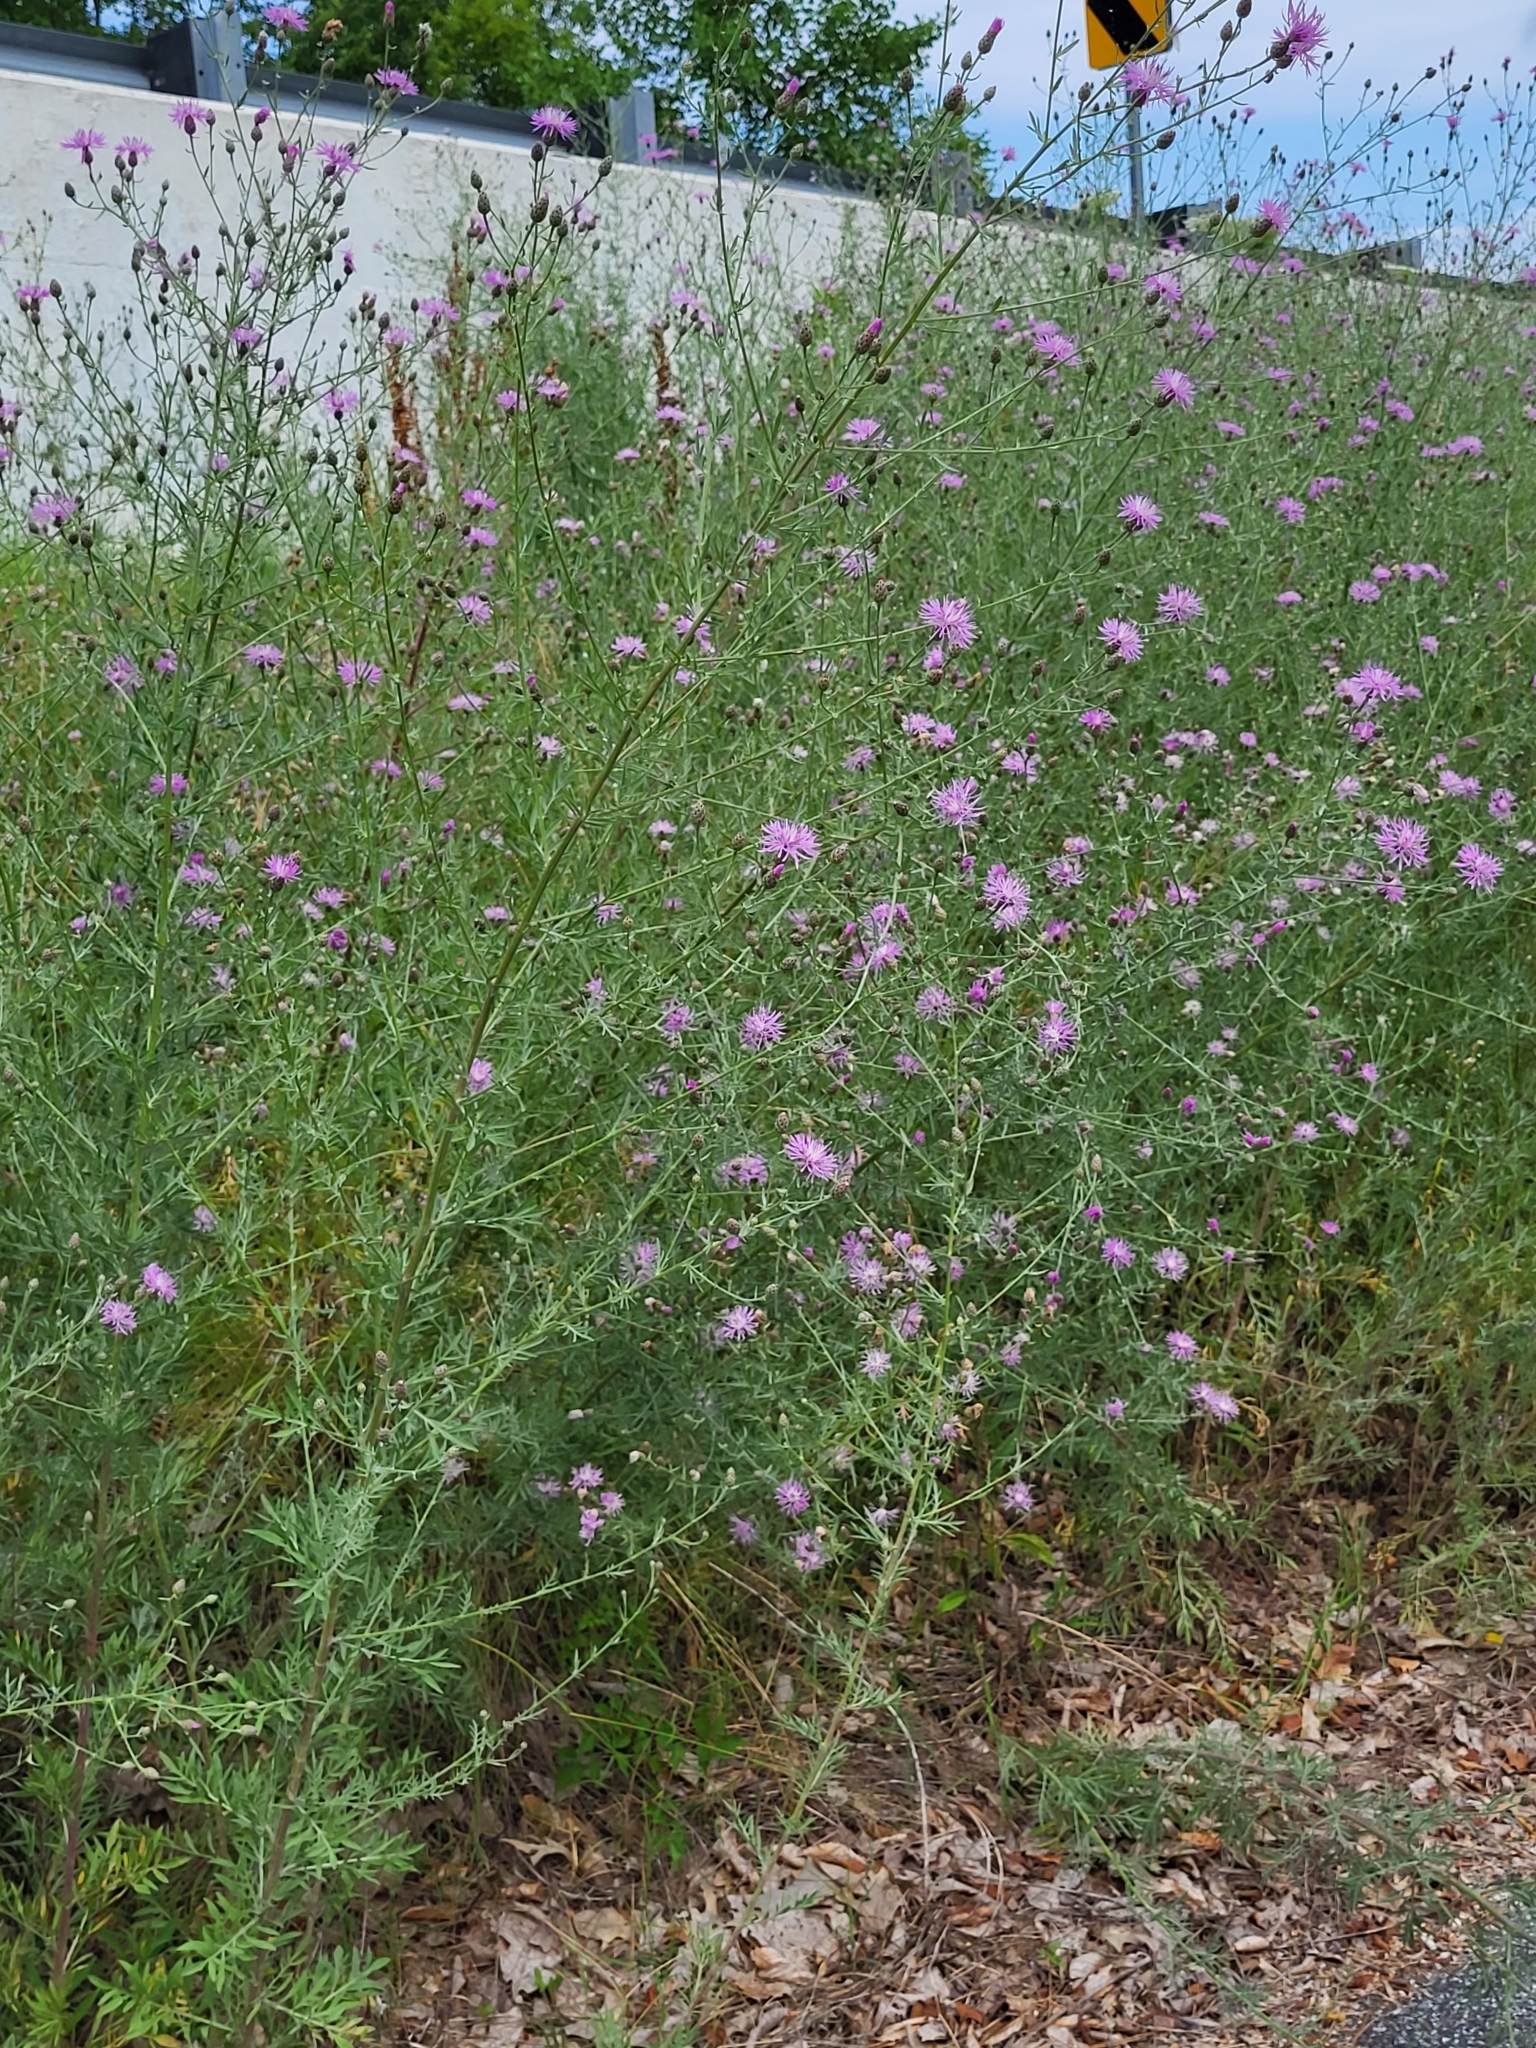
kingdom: Plantae
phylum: Tracheophyta
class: Magnoliopsida
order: Asterales
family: Asteraceae
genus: Centaurea
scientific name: Centaurea stoebe
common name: Spotted knapweed
